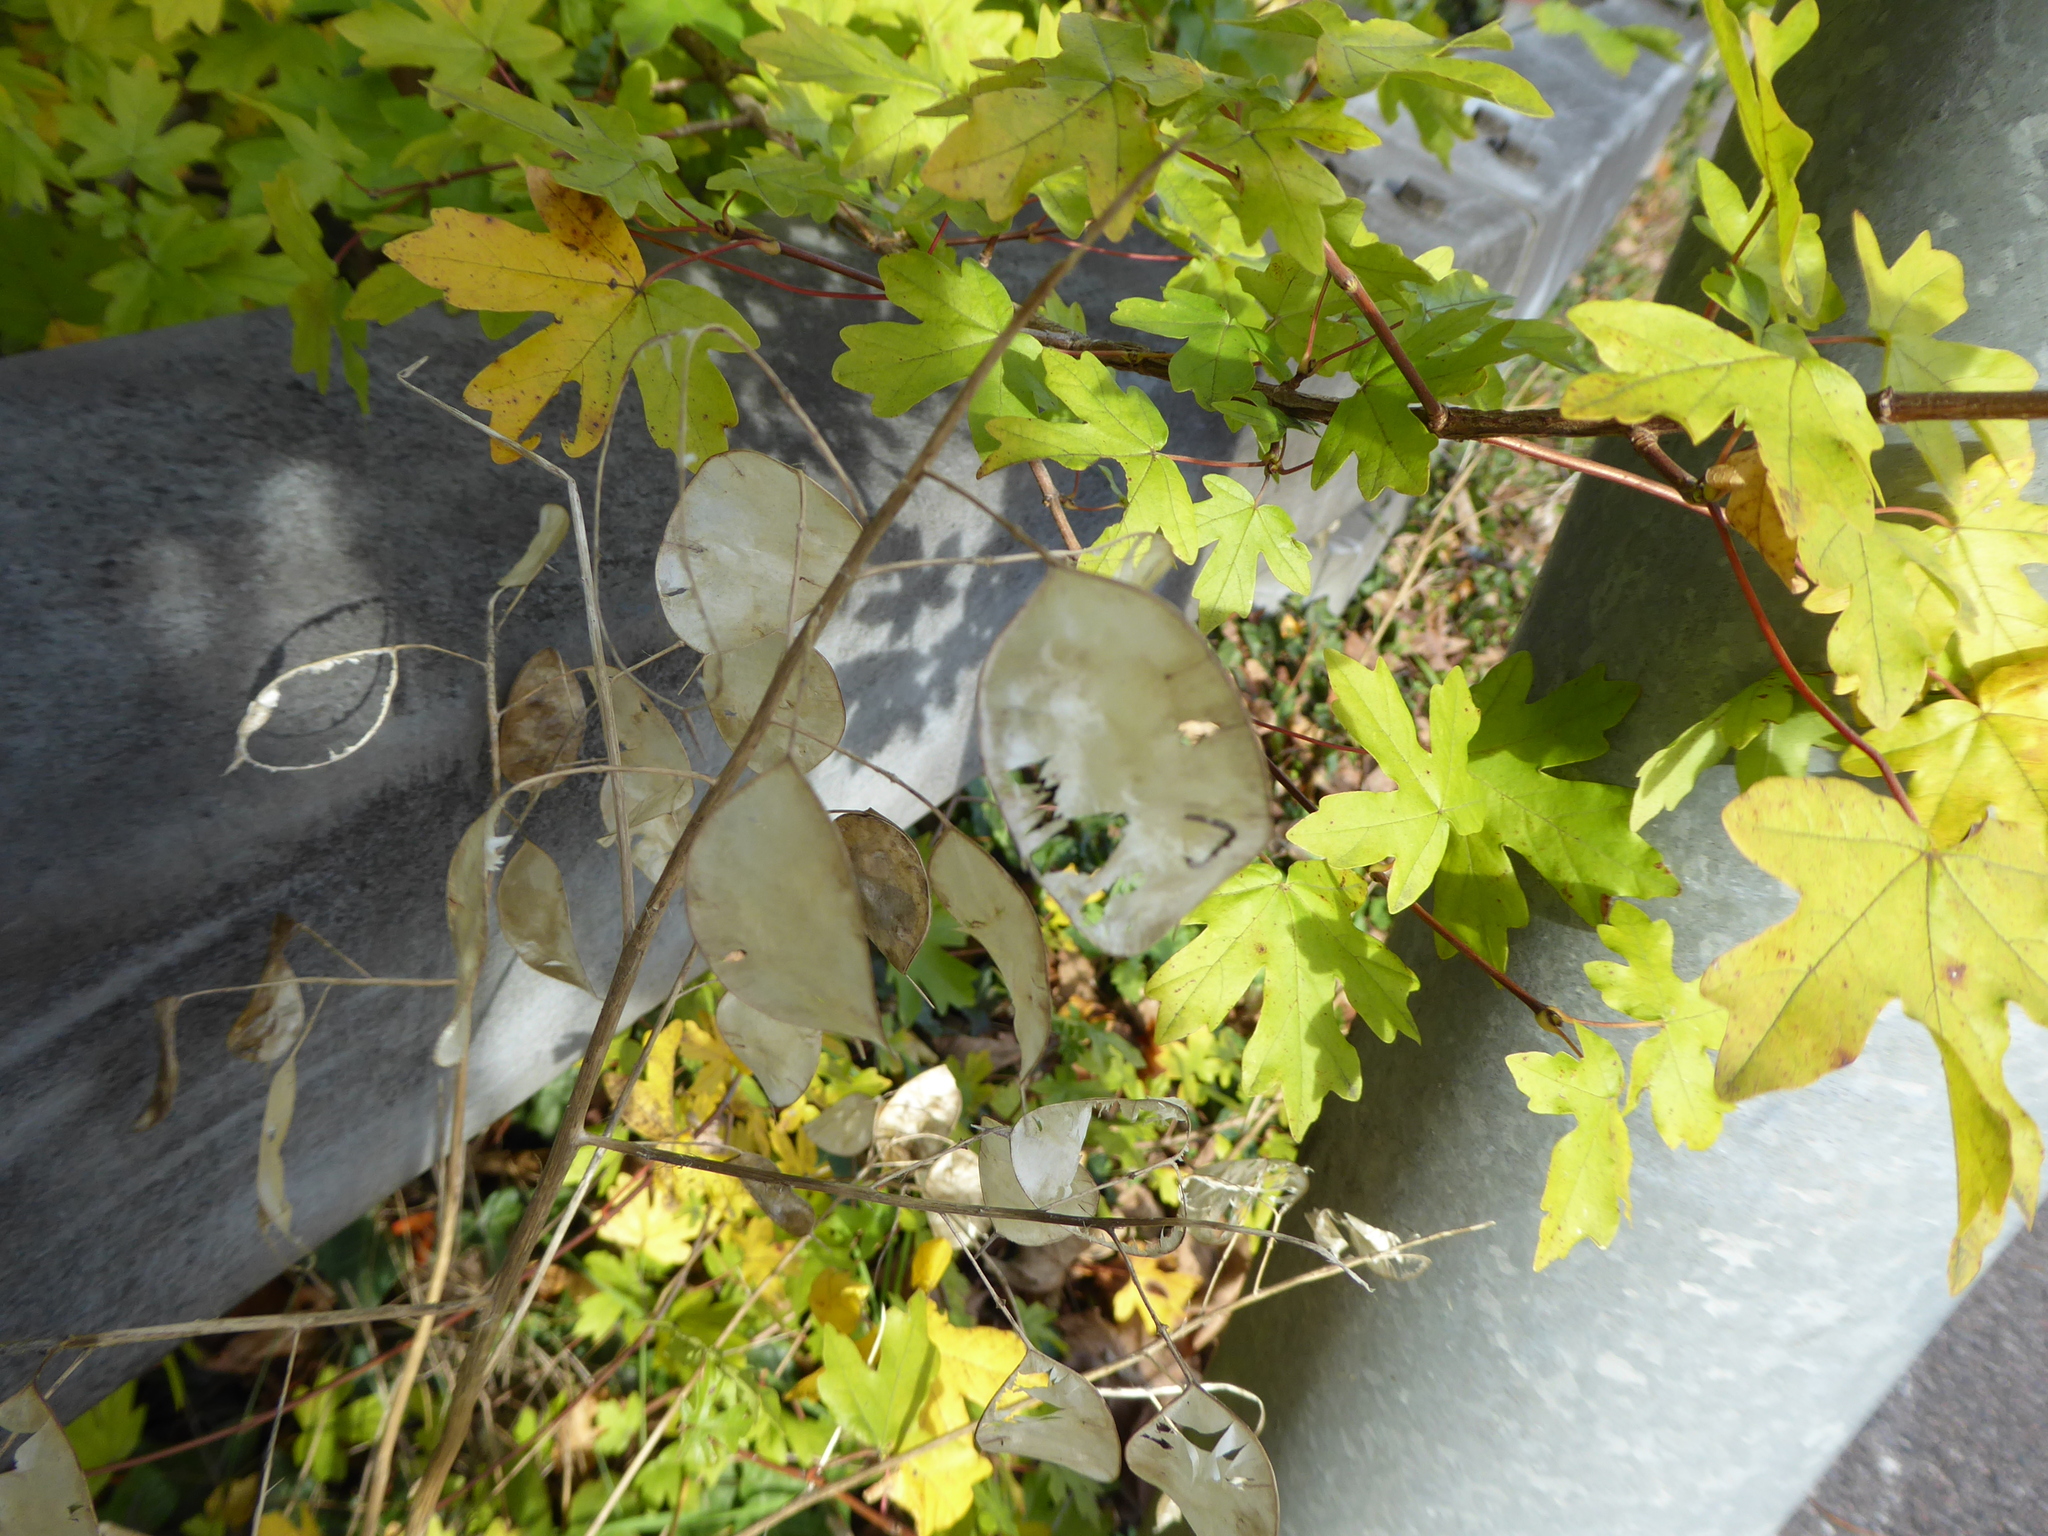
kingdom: Plantae
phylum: Tracheophyta
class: Magnoliopsida
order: Brassicales
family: Brassicaceae
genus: Lunaria
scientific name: Lunaria annua
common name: Honesty
